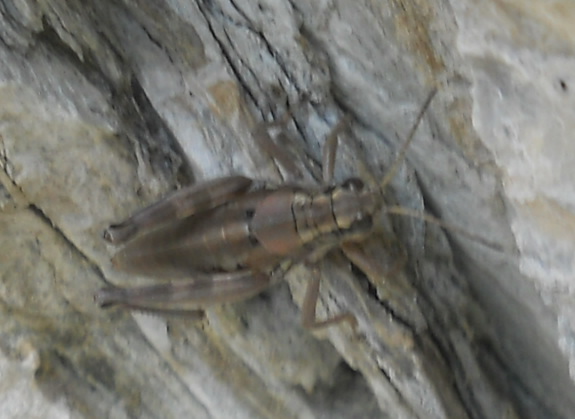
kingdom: Animalia
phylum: Arthropoda
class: Insecta
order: Orthoptera
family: Acrididae
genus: Podisma
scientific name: Podisma pedestris
